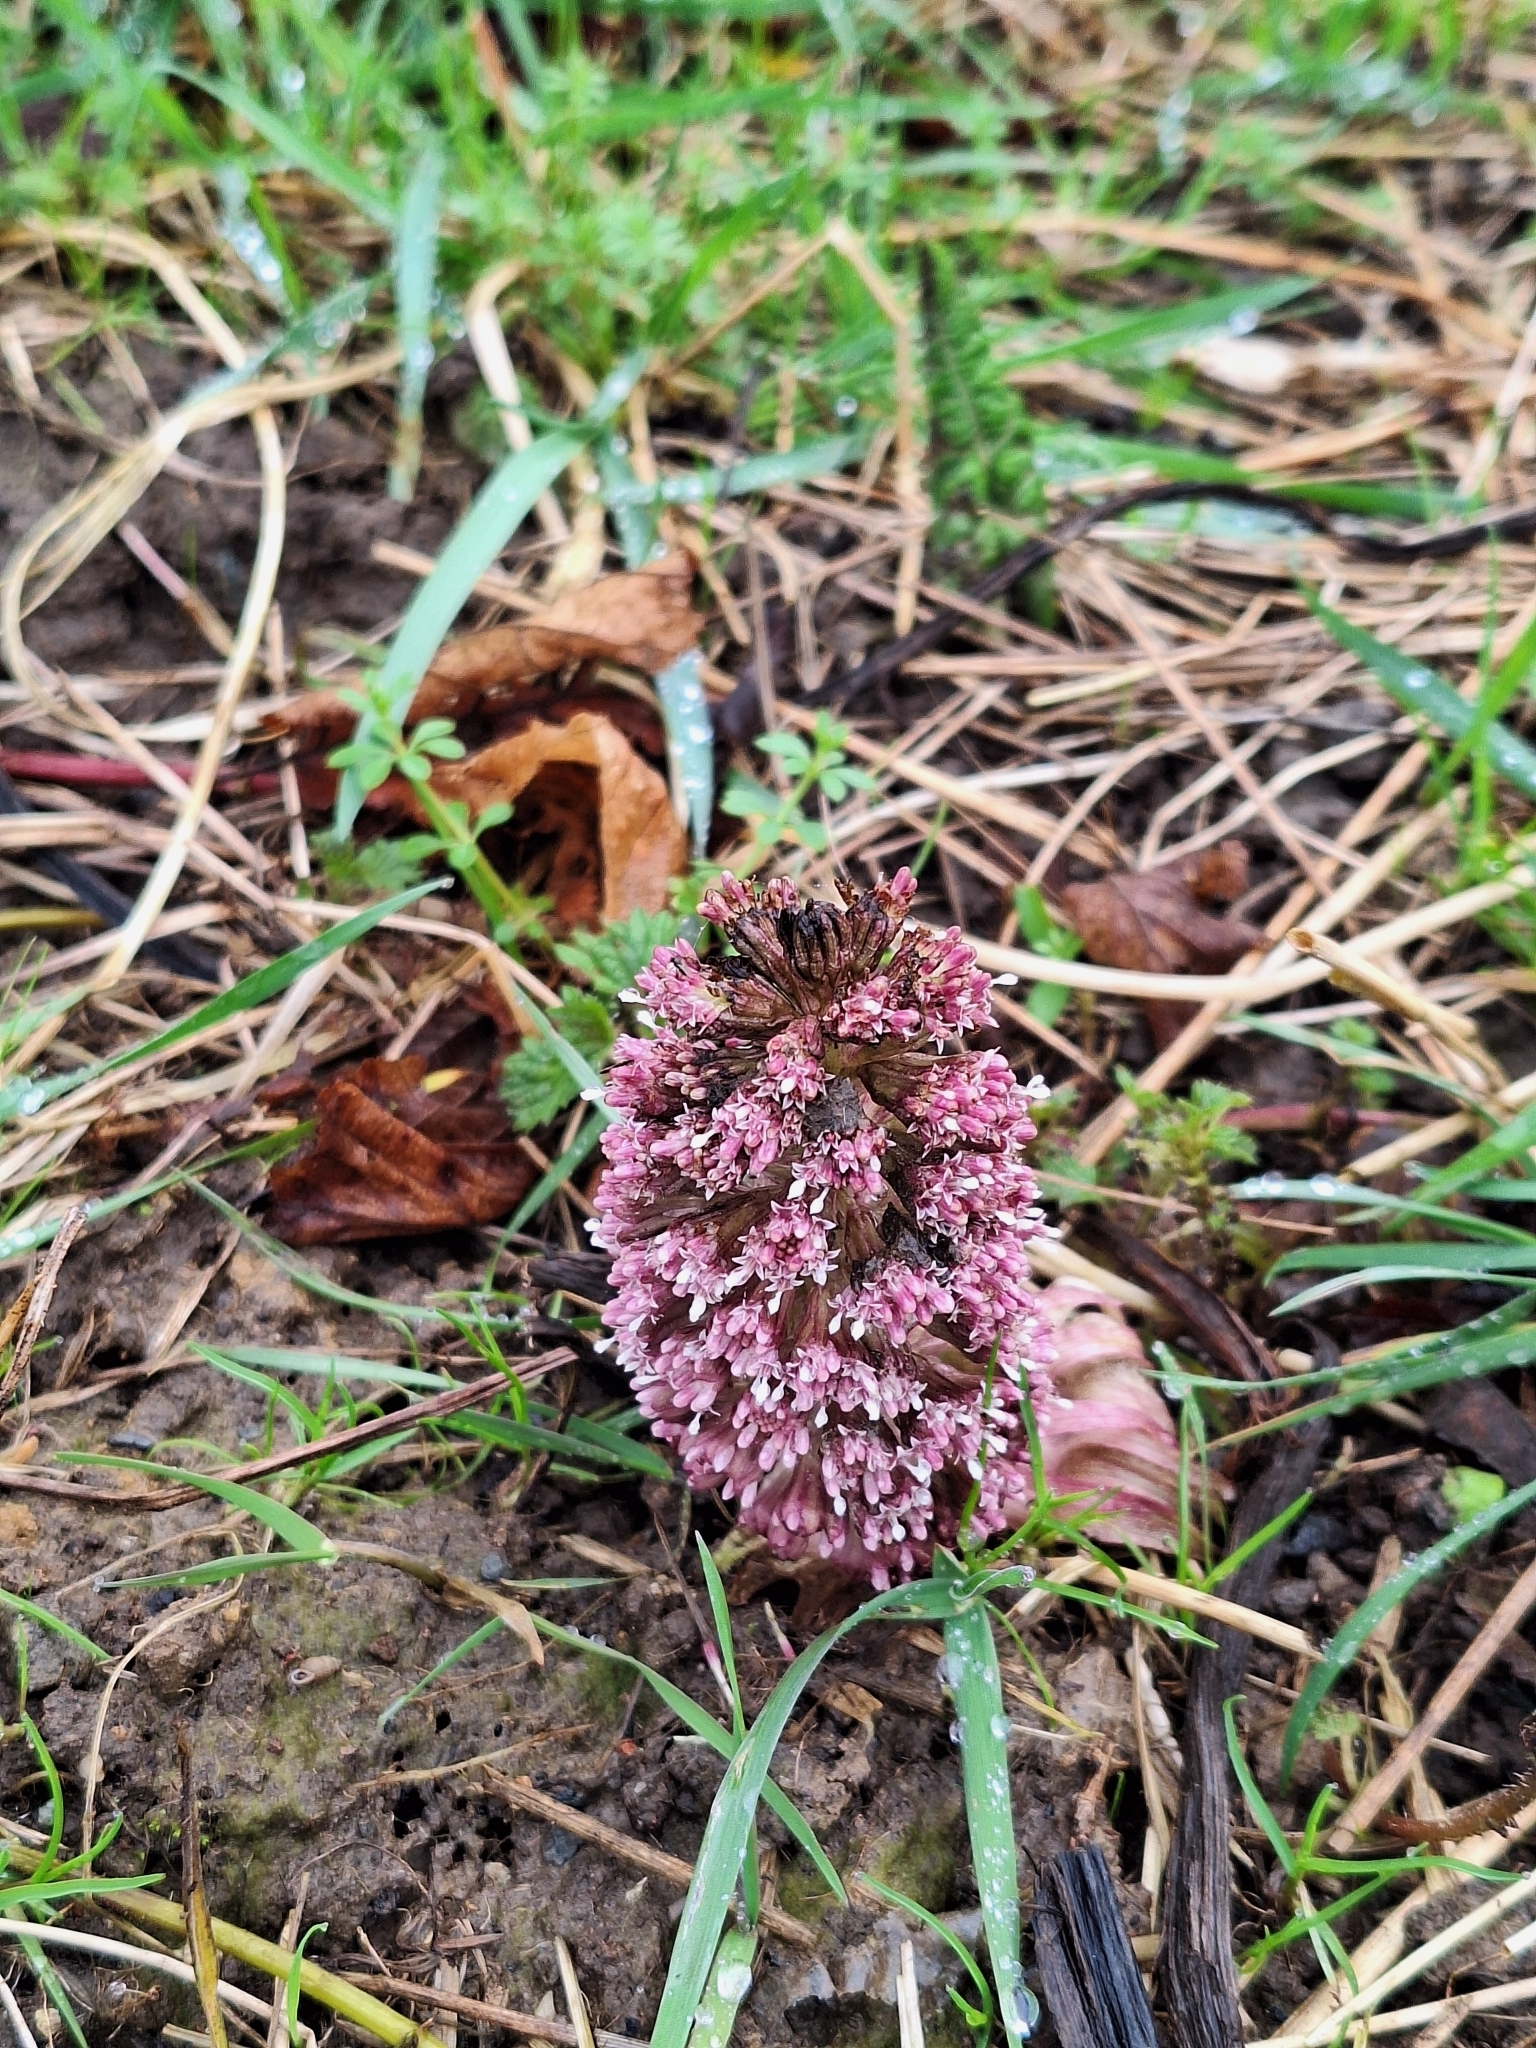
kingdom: Plantae
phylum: Tracheophyta
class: Magnoliopsida
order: Asterales
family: Asteraceae
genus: Petasites
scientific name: Petasites hybridus
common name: Butterbur
